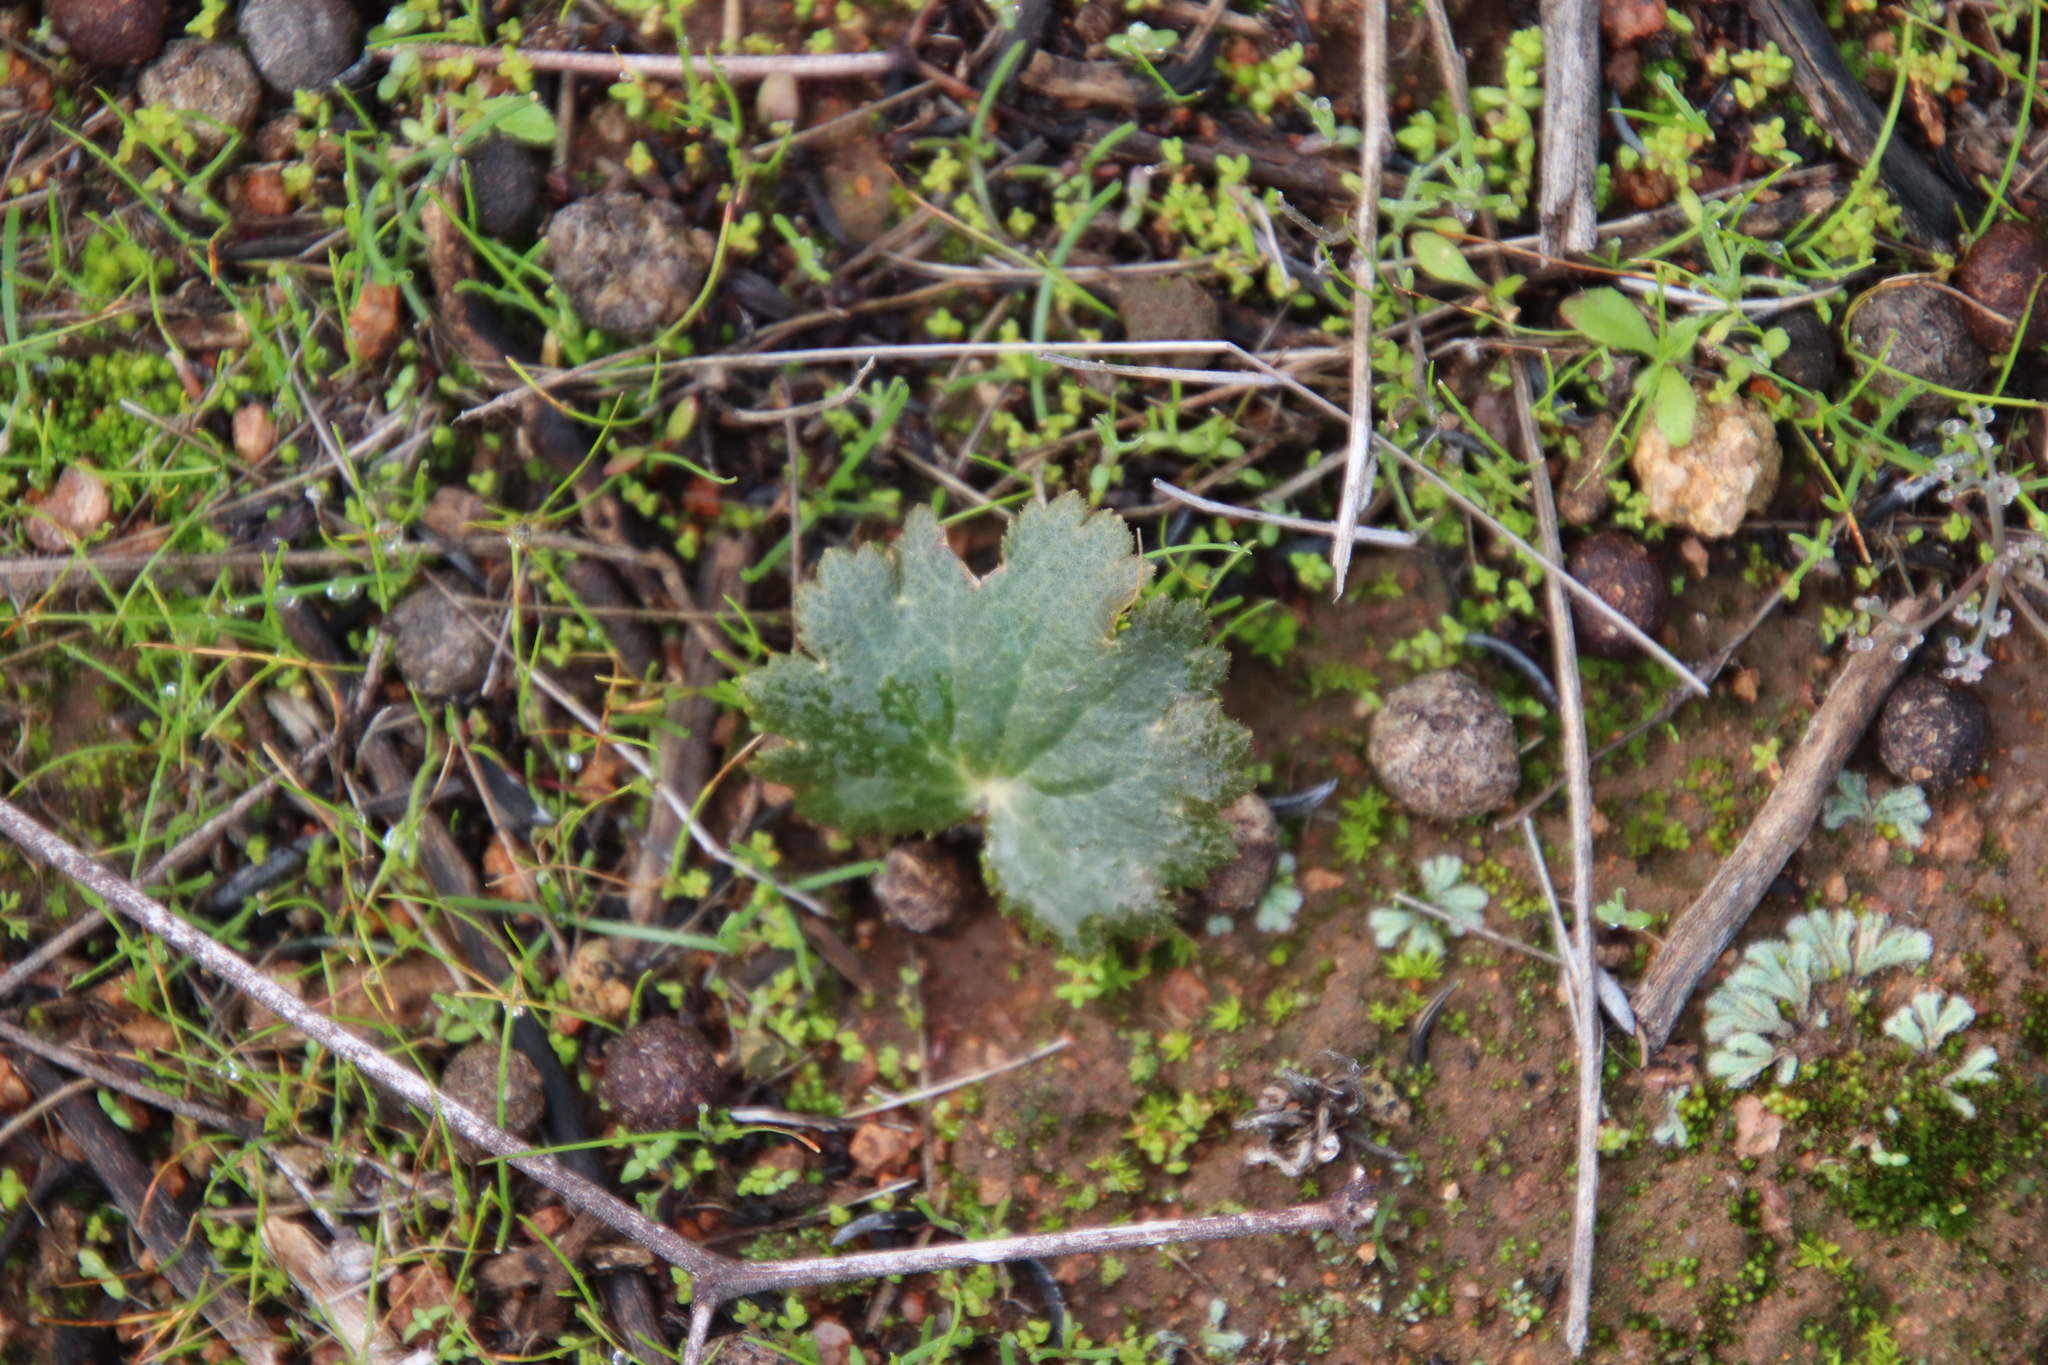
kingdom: Plantae
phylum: Tracheophyta
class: Magnoliopsida
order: Saxifragales
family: Saxifragaceae
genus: Jepsonia
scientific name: Jepsonia parryi
